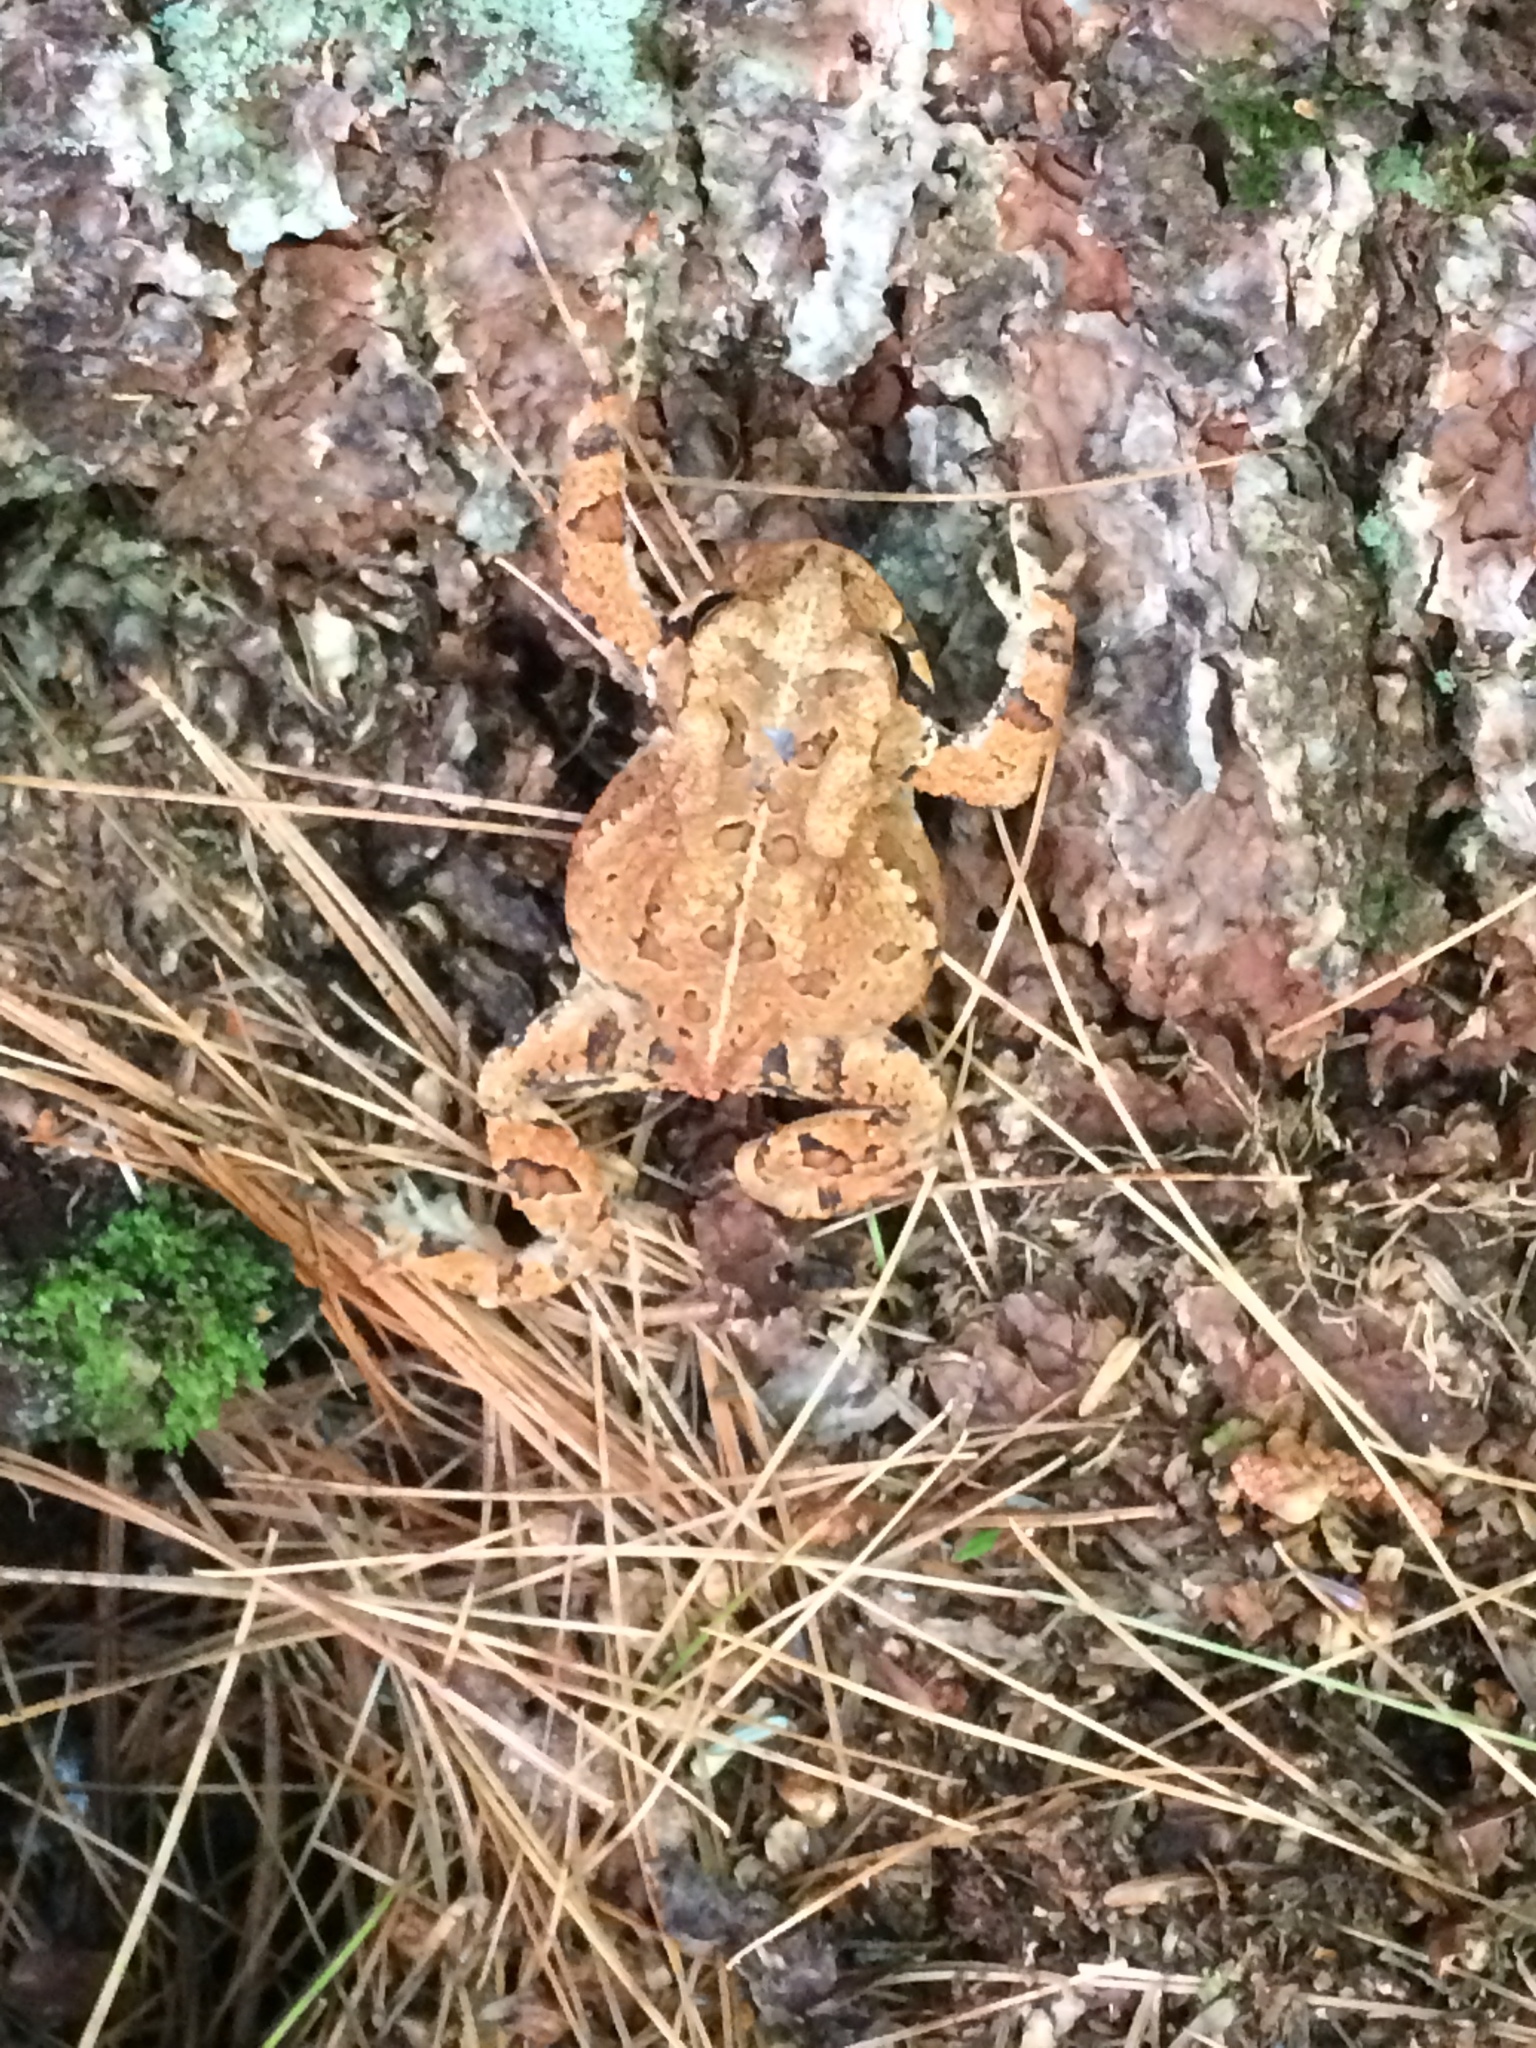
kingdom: Animalia
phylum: Chordata
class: Amphibia
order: Anura
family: Bufonidae
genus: Anaxyrus
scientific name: Anaxyrus americanus
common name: American toad
